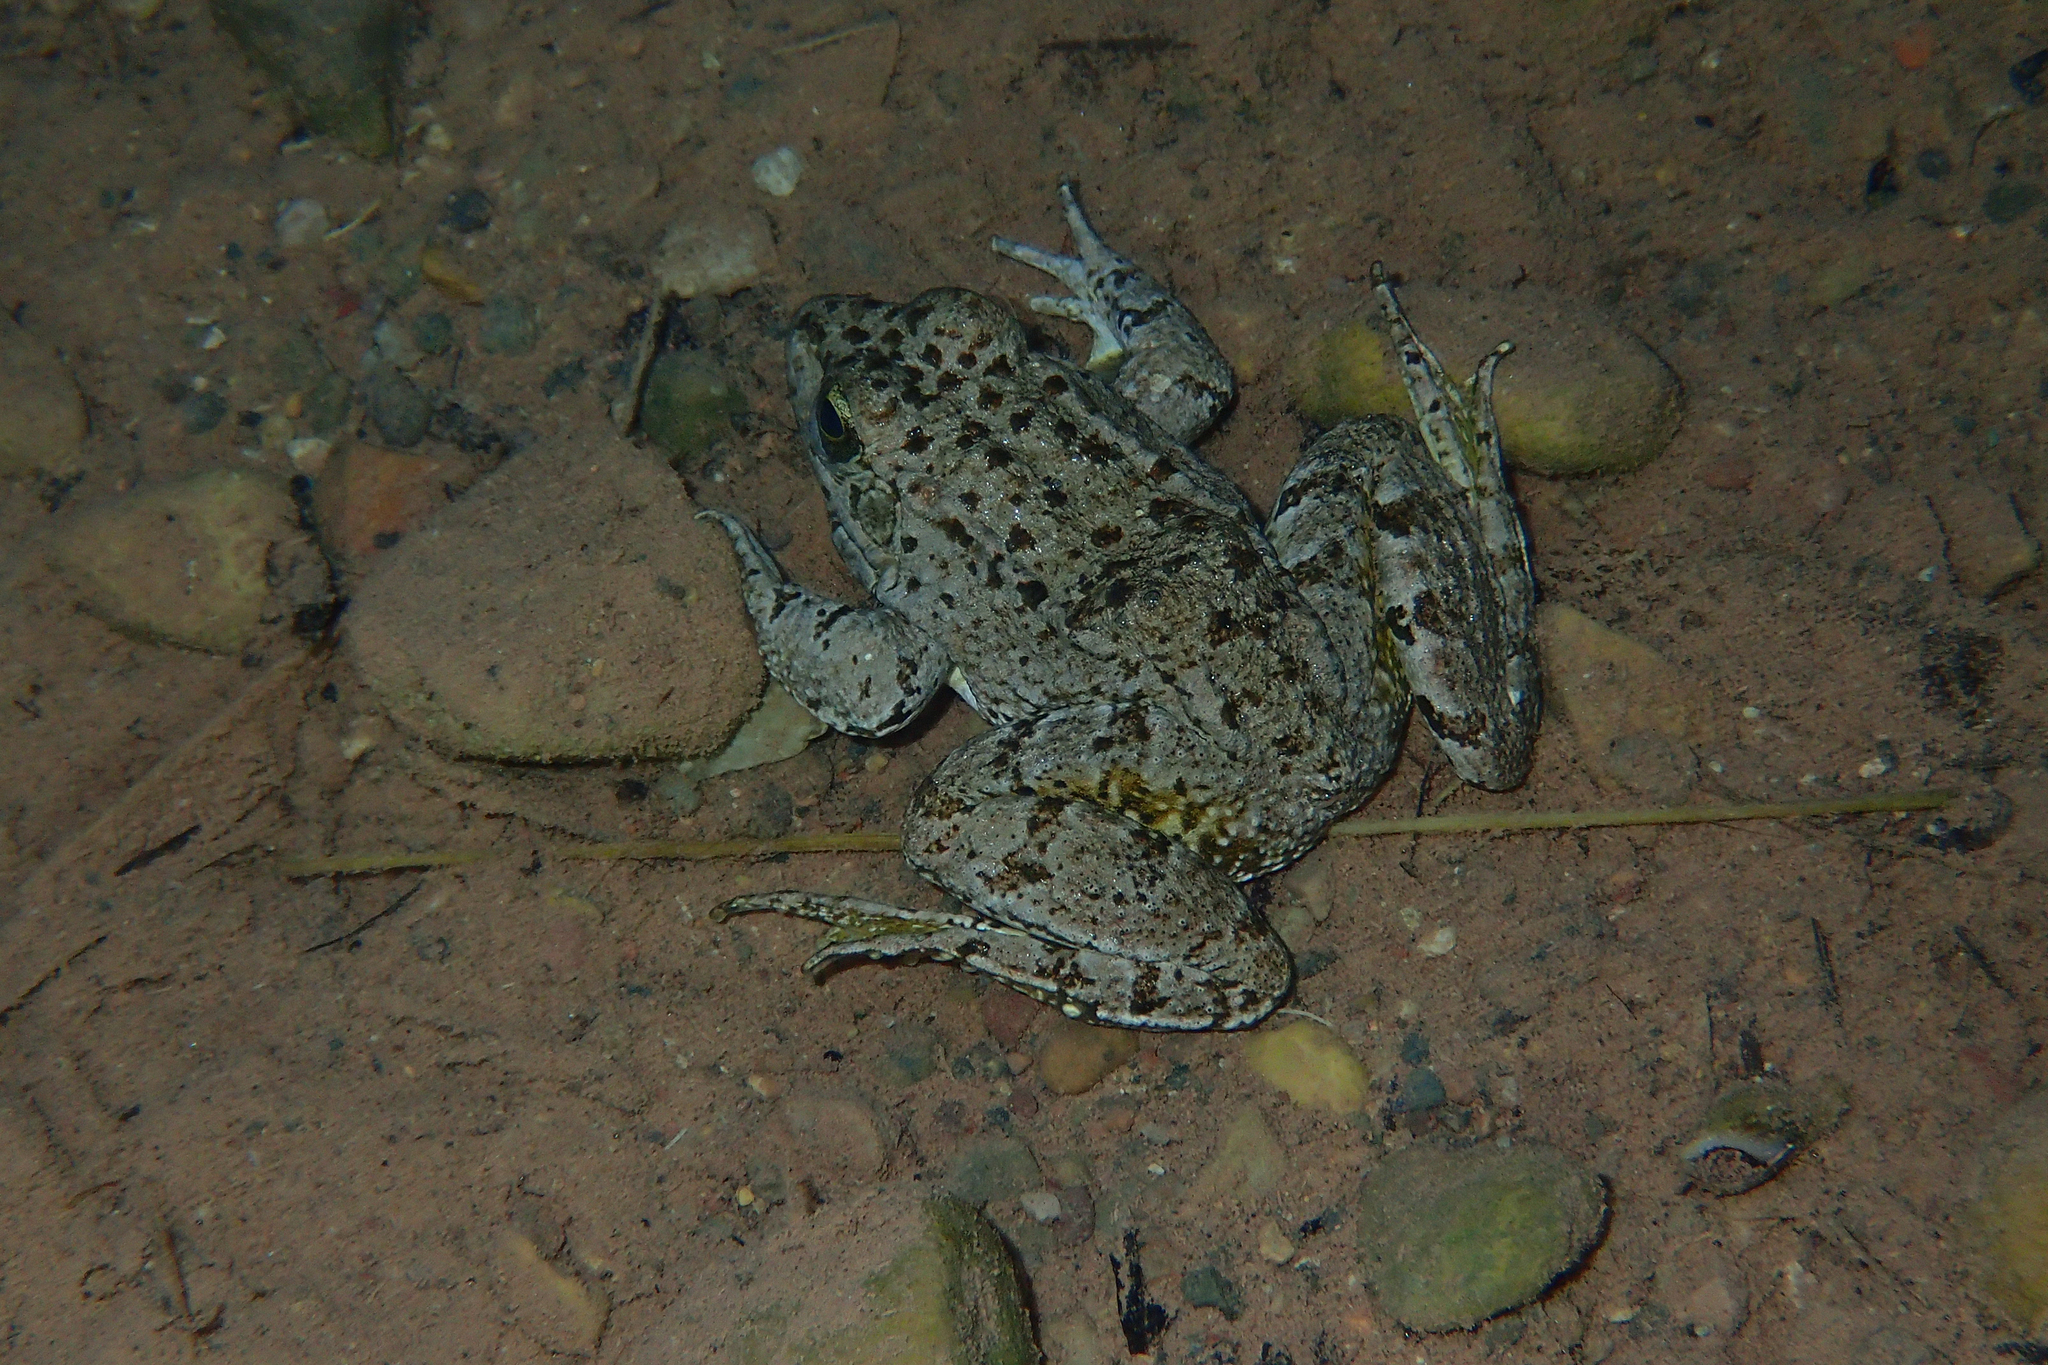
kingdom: Animalia
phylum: Chordata
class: Amphibia
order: Anura
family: Ranidae
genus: Pelophylax
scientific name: Pelophylax saharicus
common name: Sahara frog
